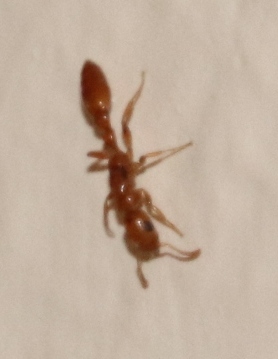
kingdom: Animalia
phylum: Arthropoda
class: Insecta
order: Hymenoptera
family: Formicidae
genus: Tetraponera
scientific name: Tetraponera emeryi
